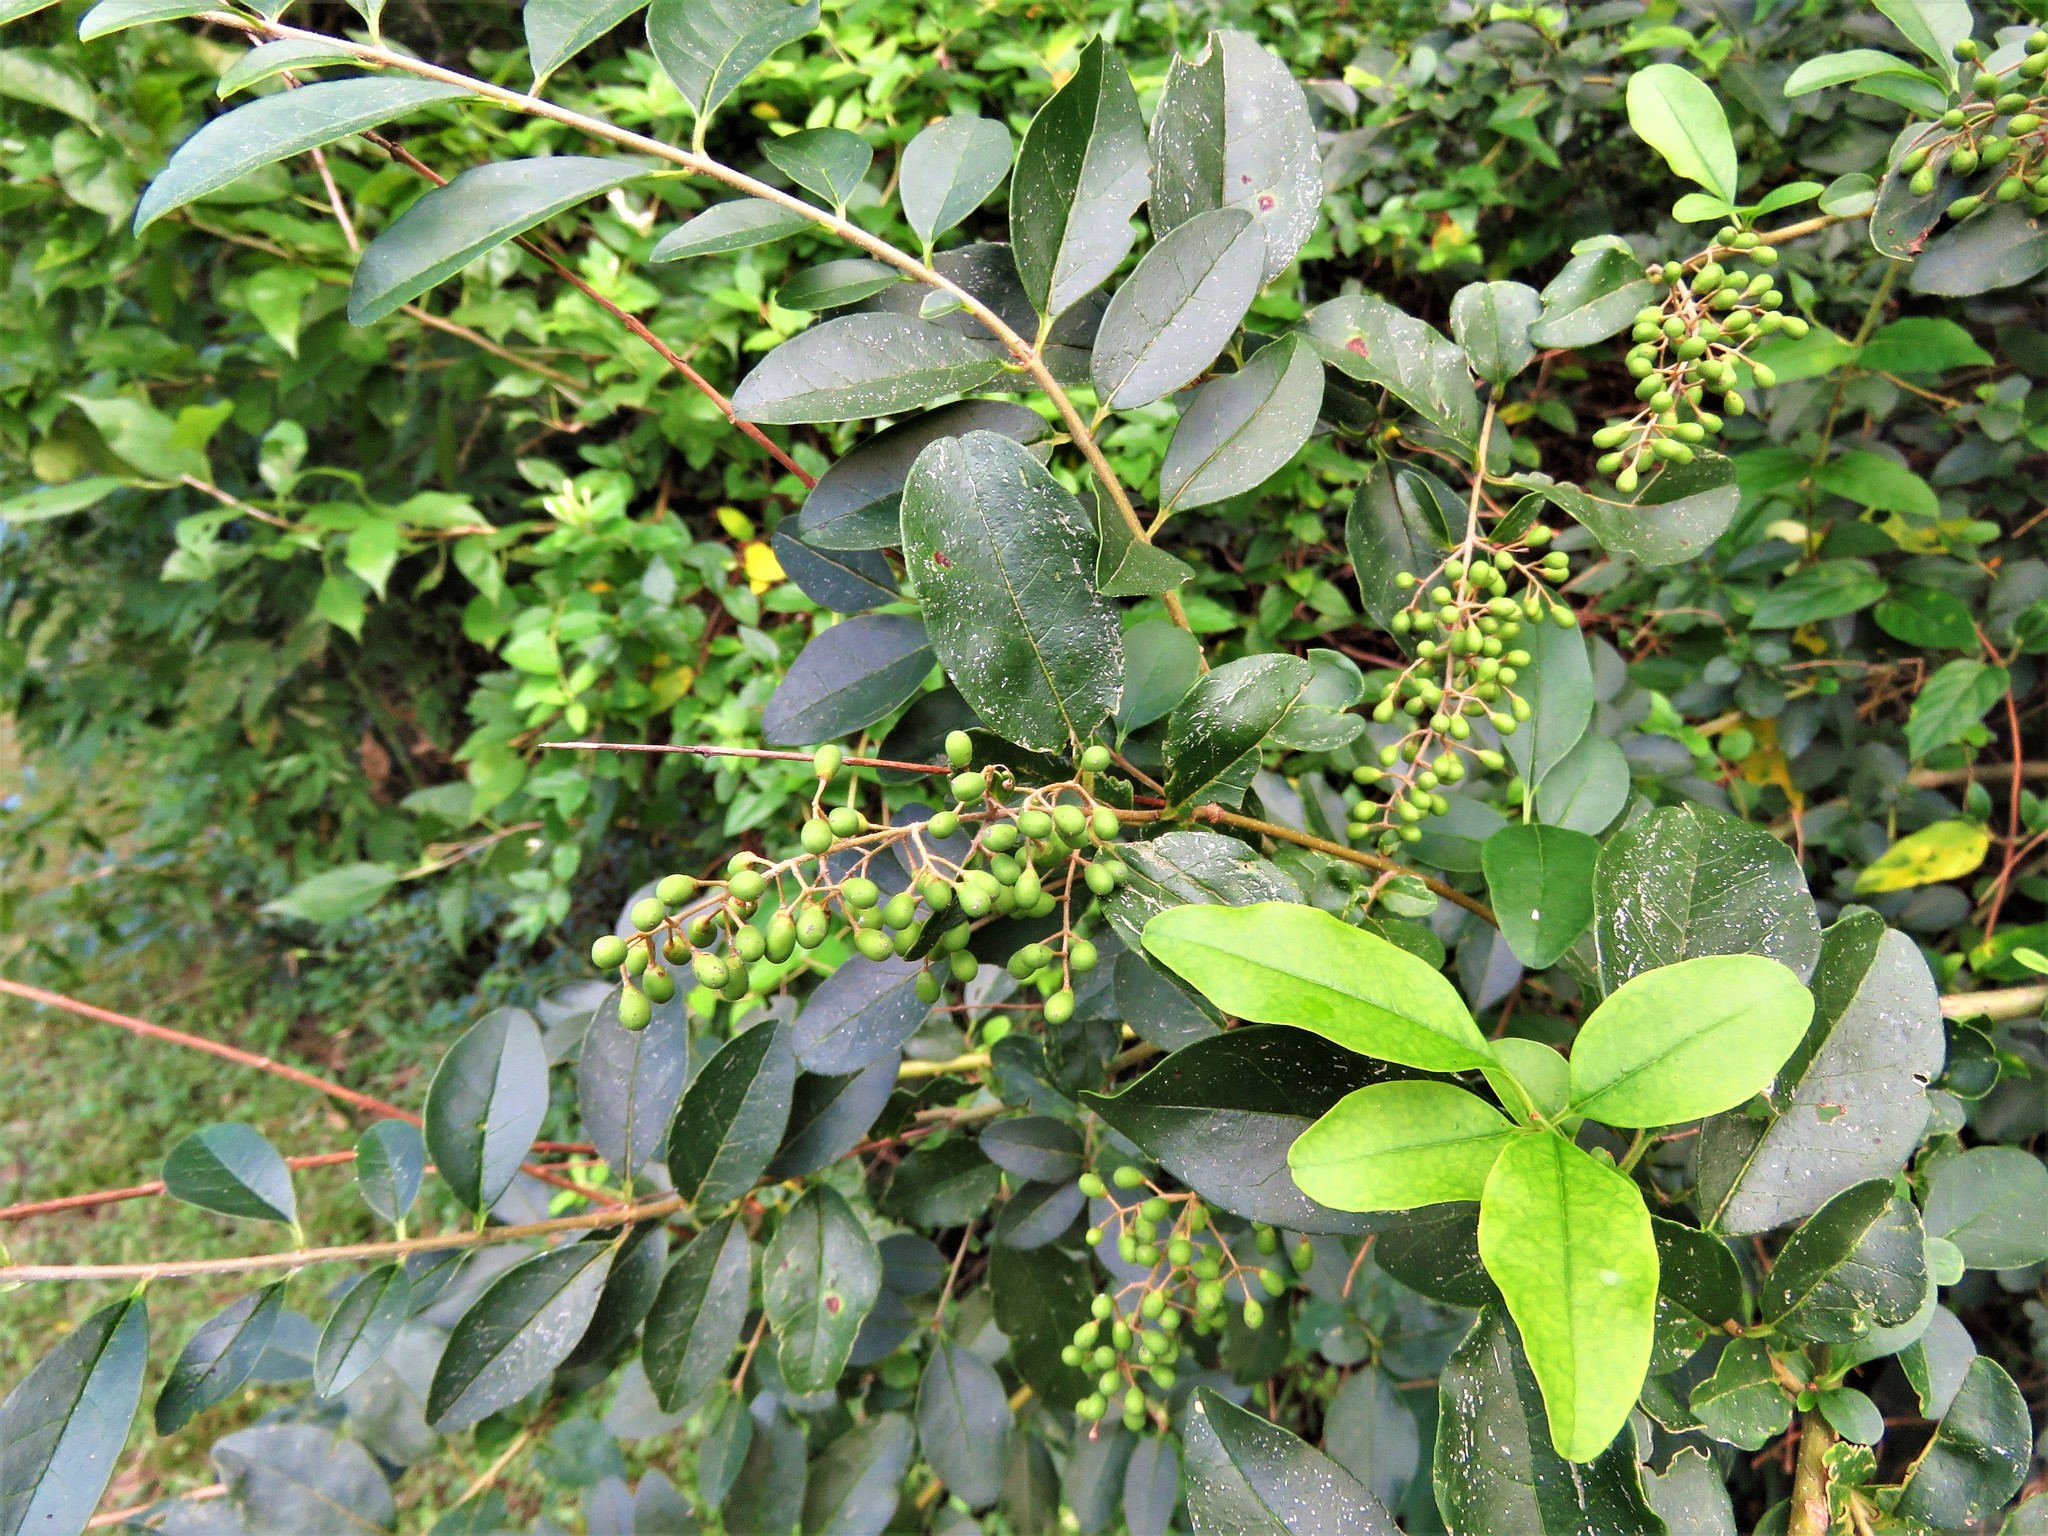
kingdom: Plantae
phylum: Tracheophyta
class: Magnoliopsida
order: Lamiales
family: Oleaceae
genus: Ligustrum
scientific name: Ligustrum sinense
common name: Chinese privet
